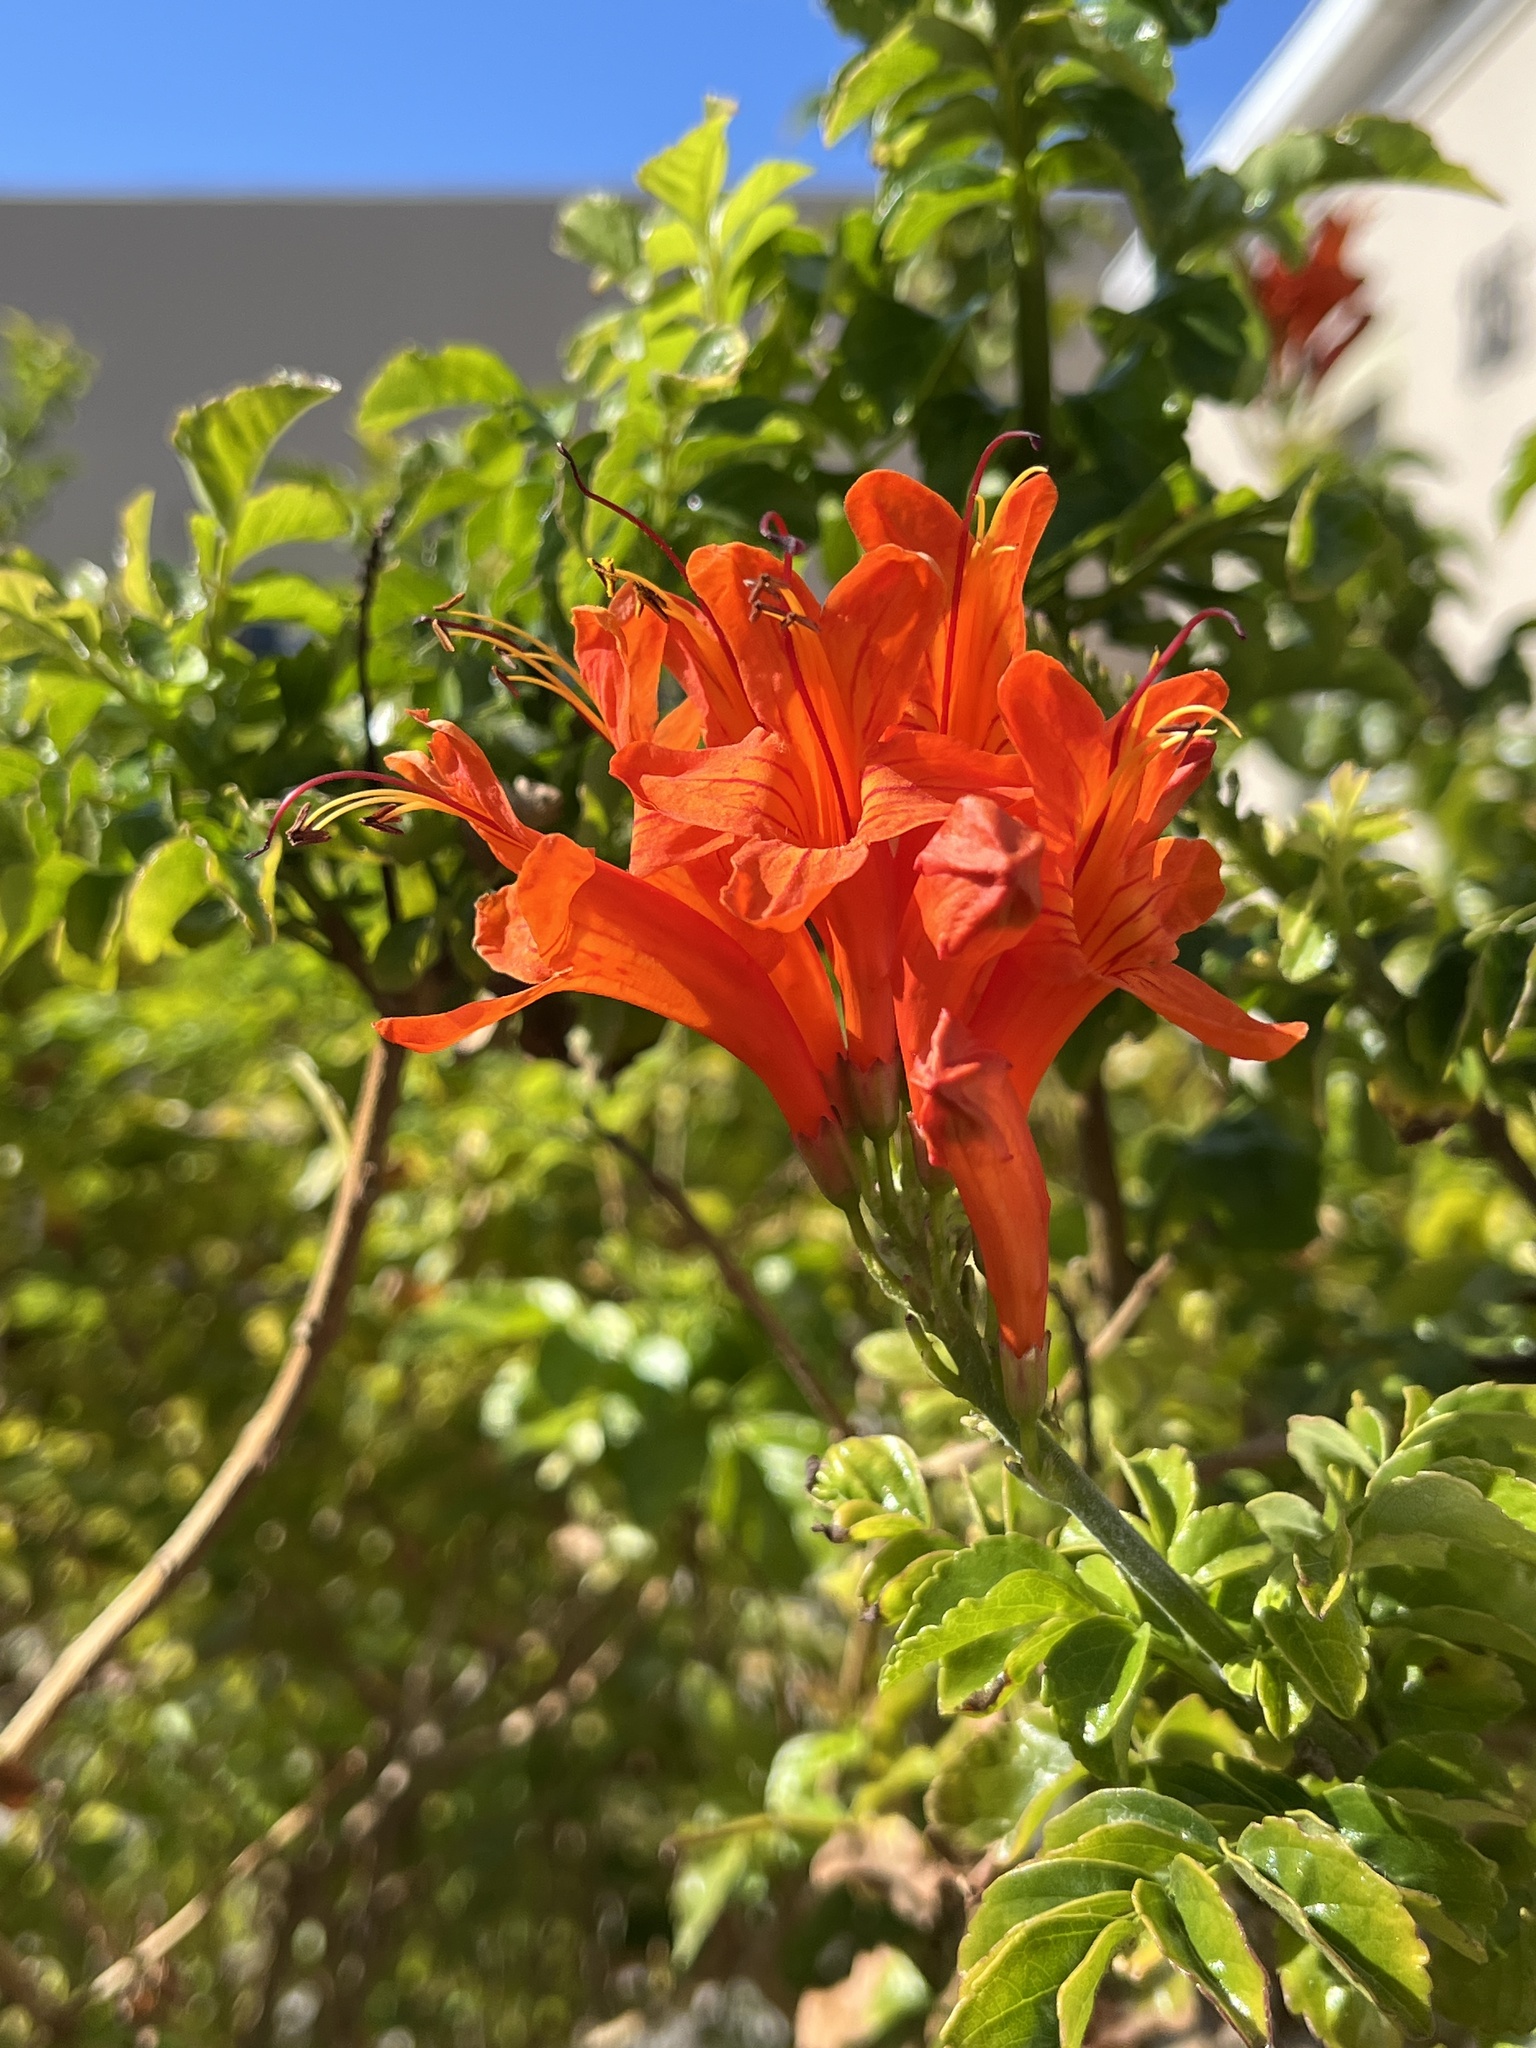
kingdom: Plantae
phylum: Tracheophyta
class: Magnoliopsida
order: Lamiales
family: Bignoniaceae
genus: Tecomaria
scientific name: Tecomaria capensis
